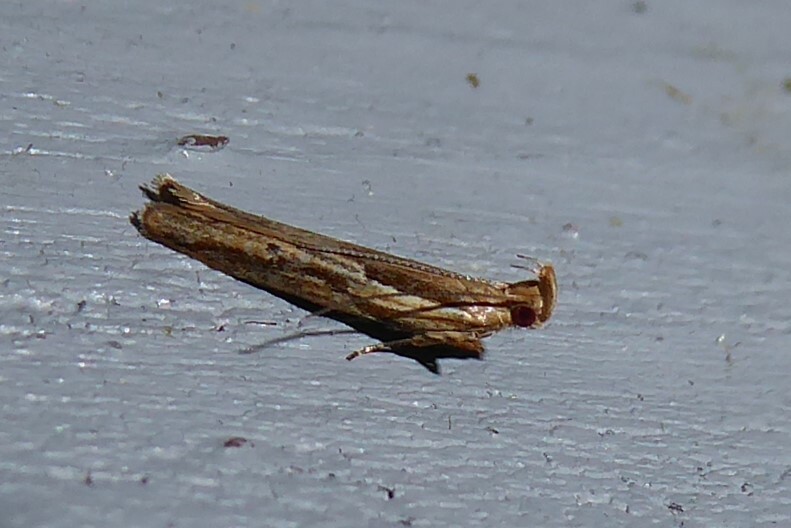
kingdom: Animalia
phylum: Arthropoda
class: Insecta
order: Lepidoptera
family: Depressariidae
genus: Eutorna
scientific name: Eutorna symmorpha
